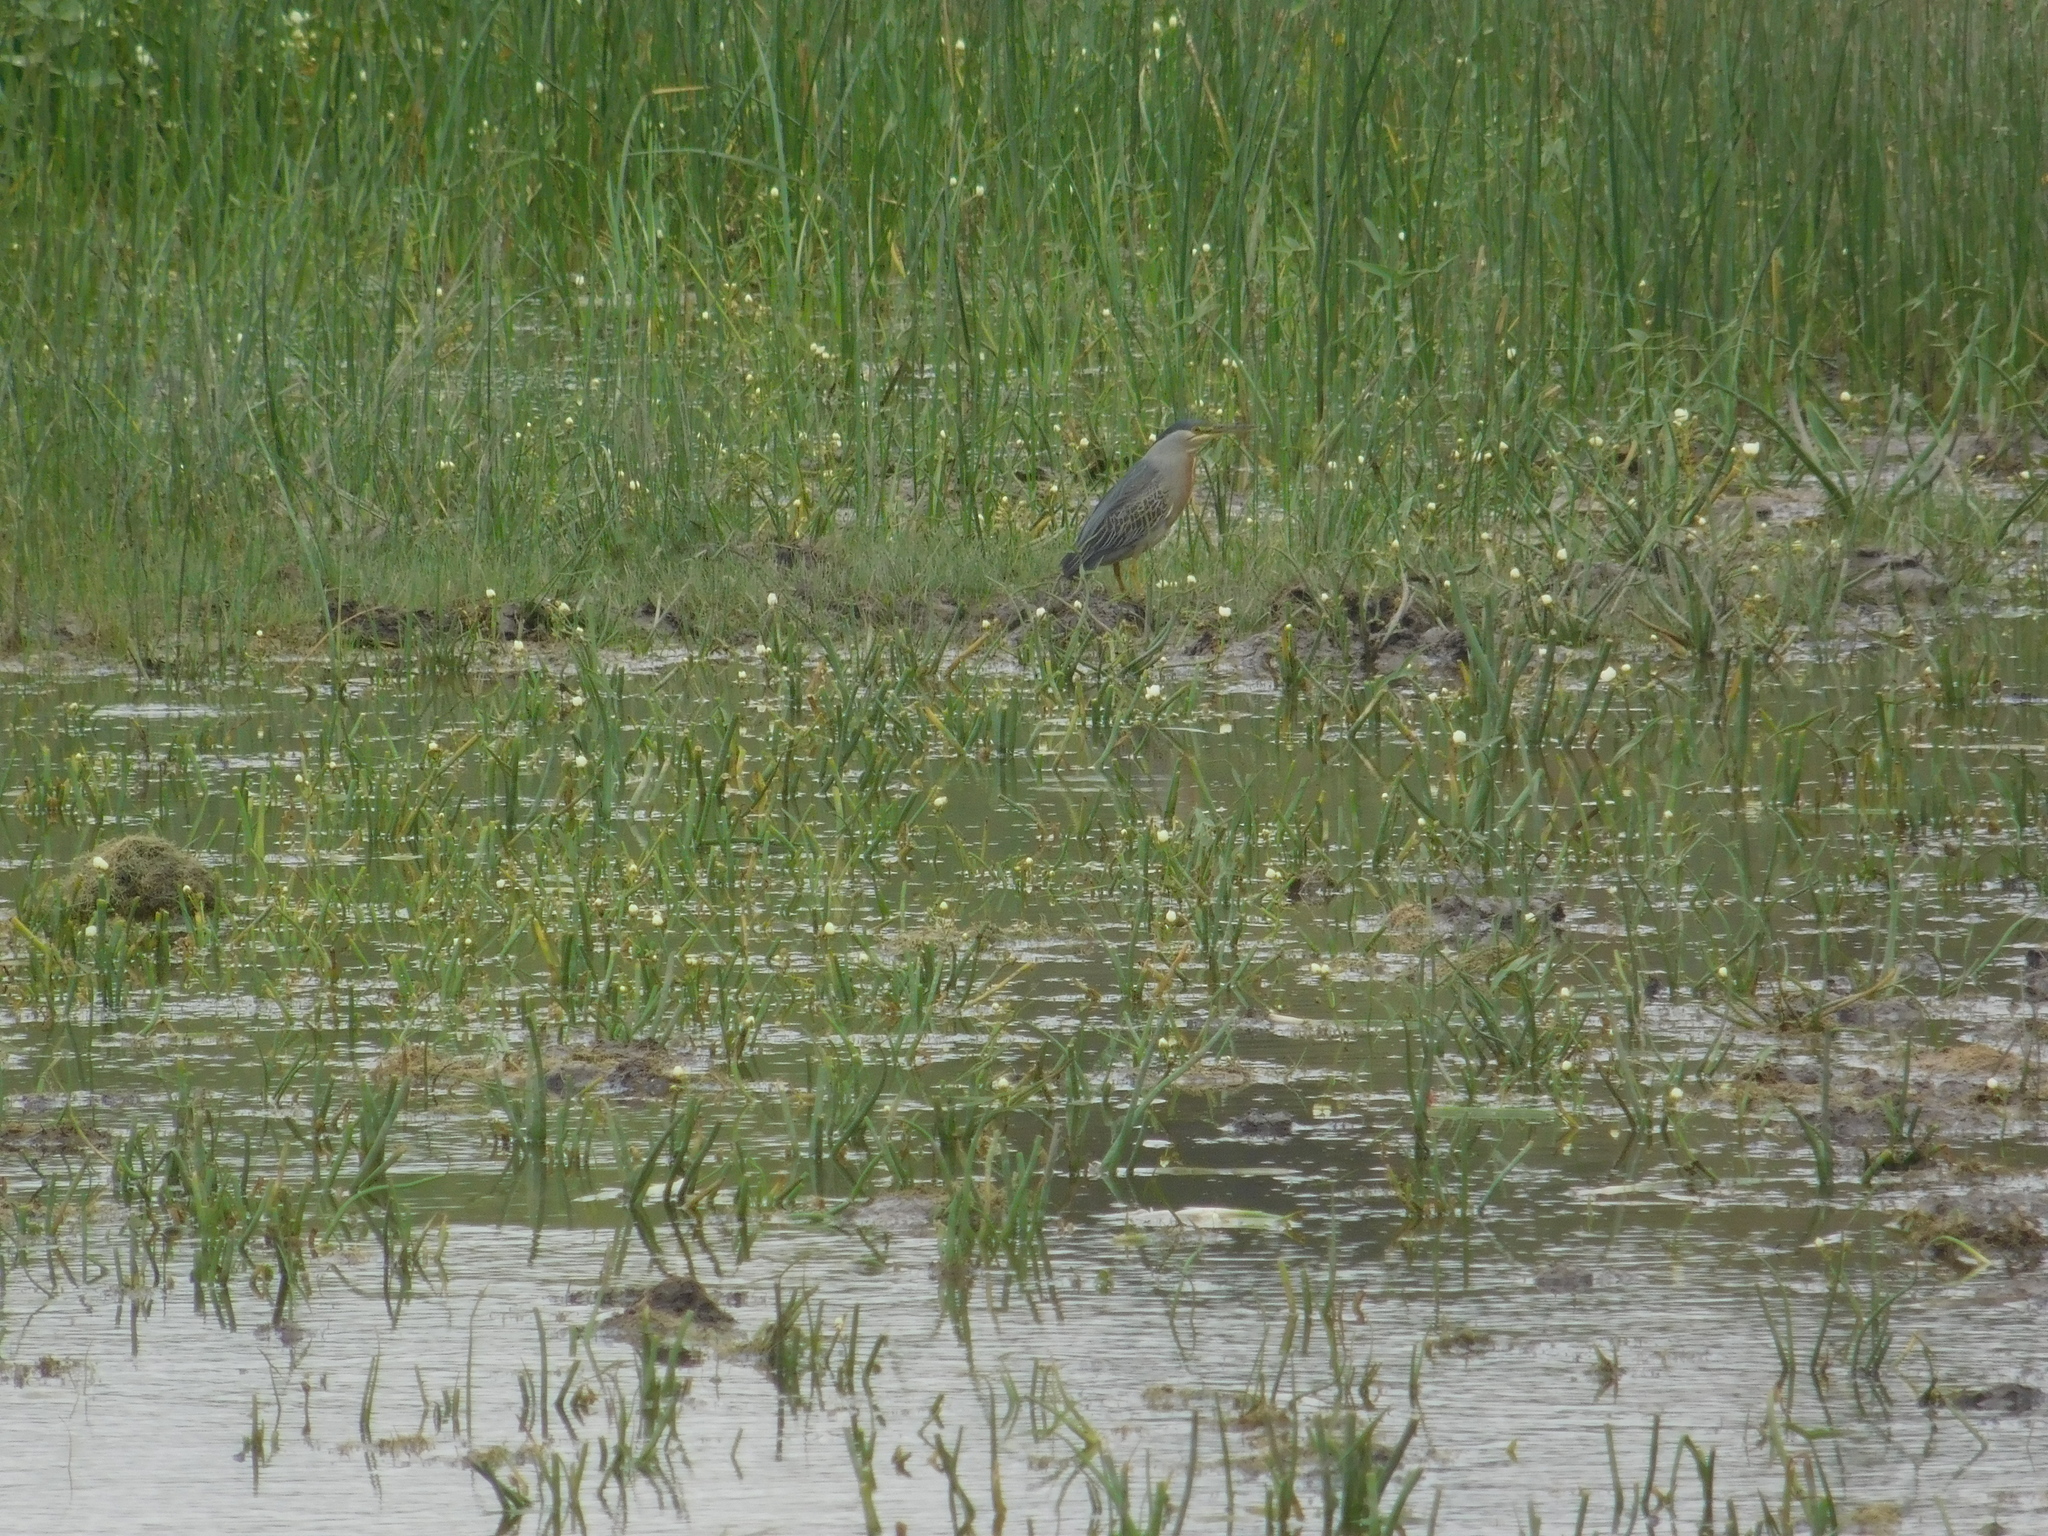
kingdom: Animalia
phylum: Chordata
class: Aves
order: Pelecaniformes
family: Ardeidae
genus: Butorides
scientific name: Butorides striata
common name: Striated heron
